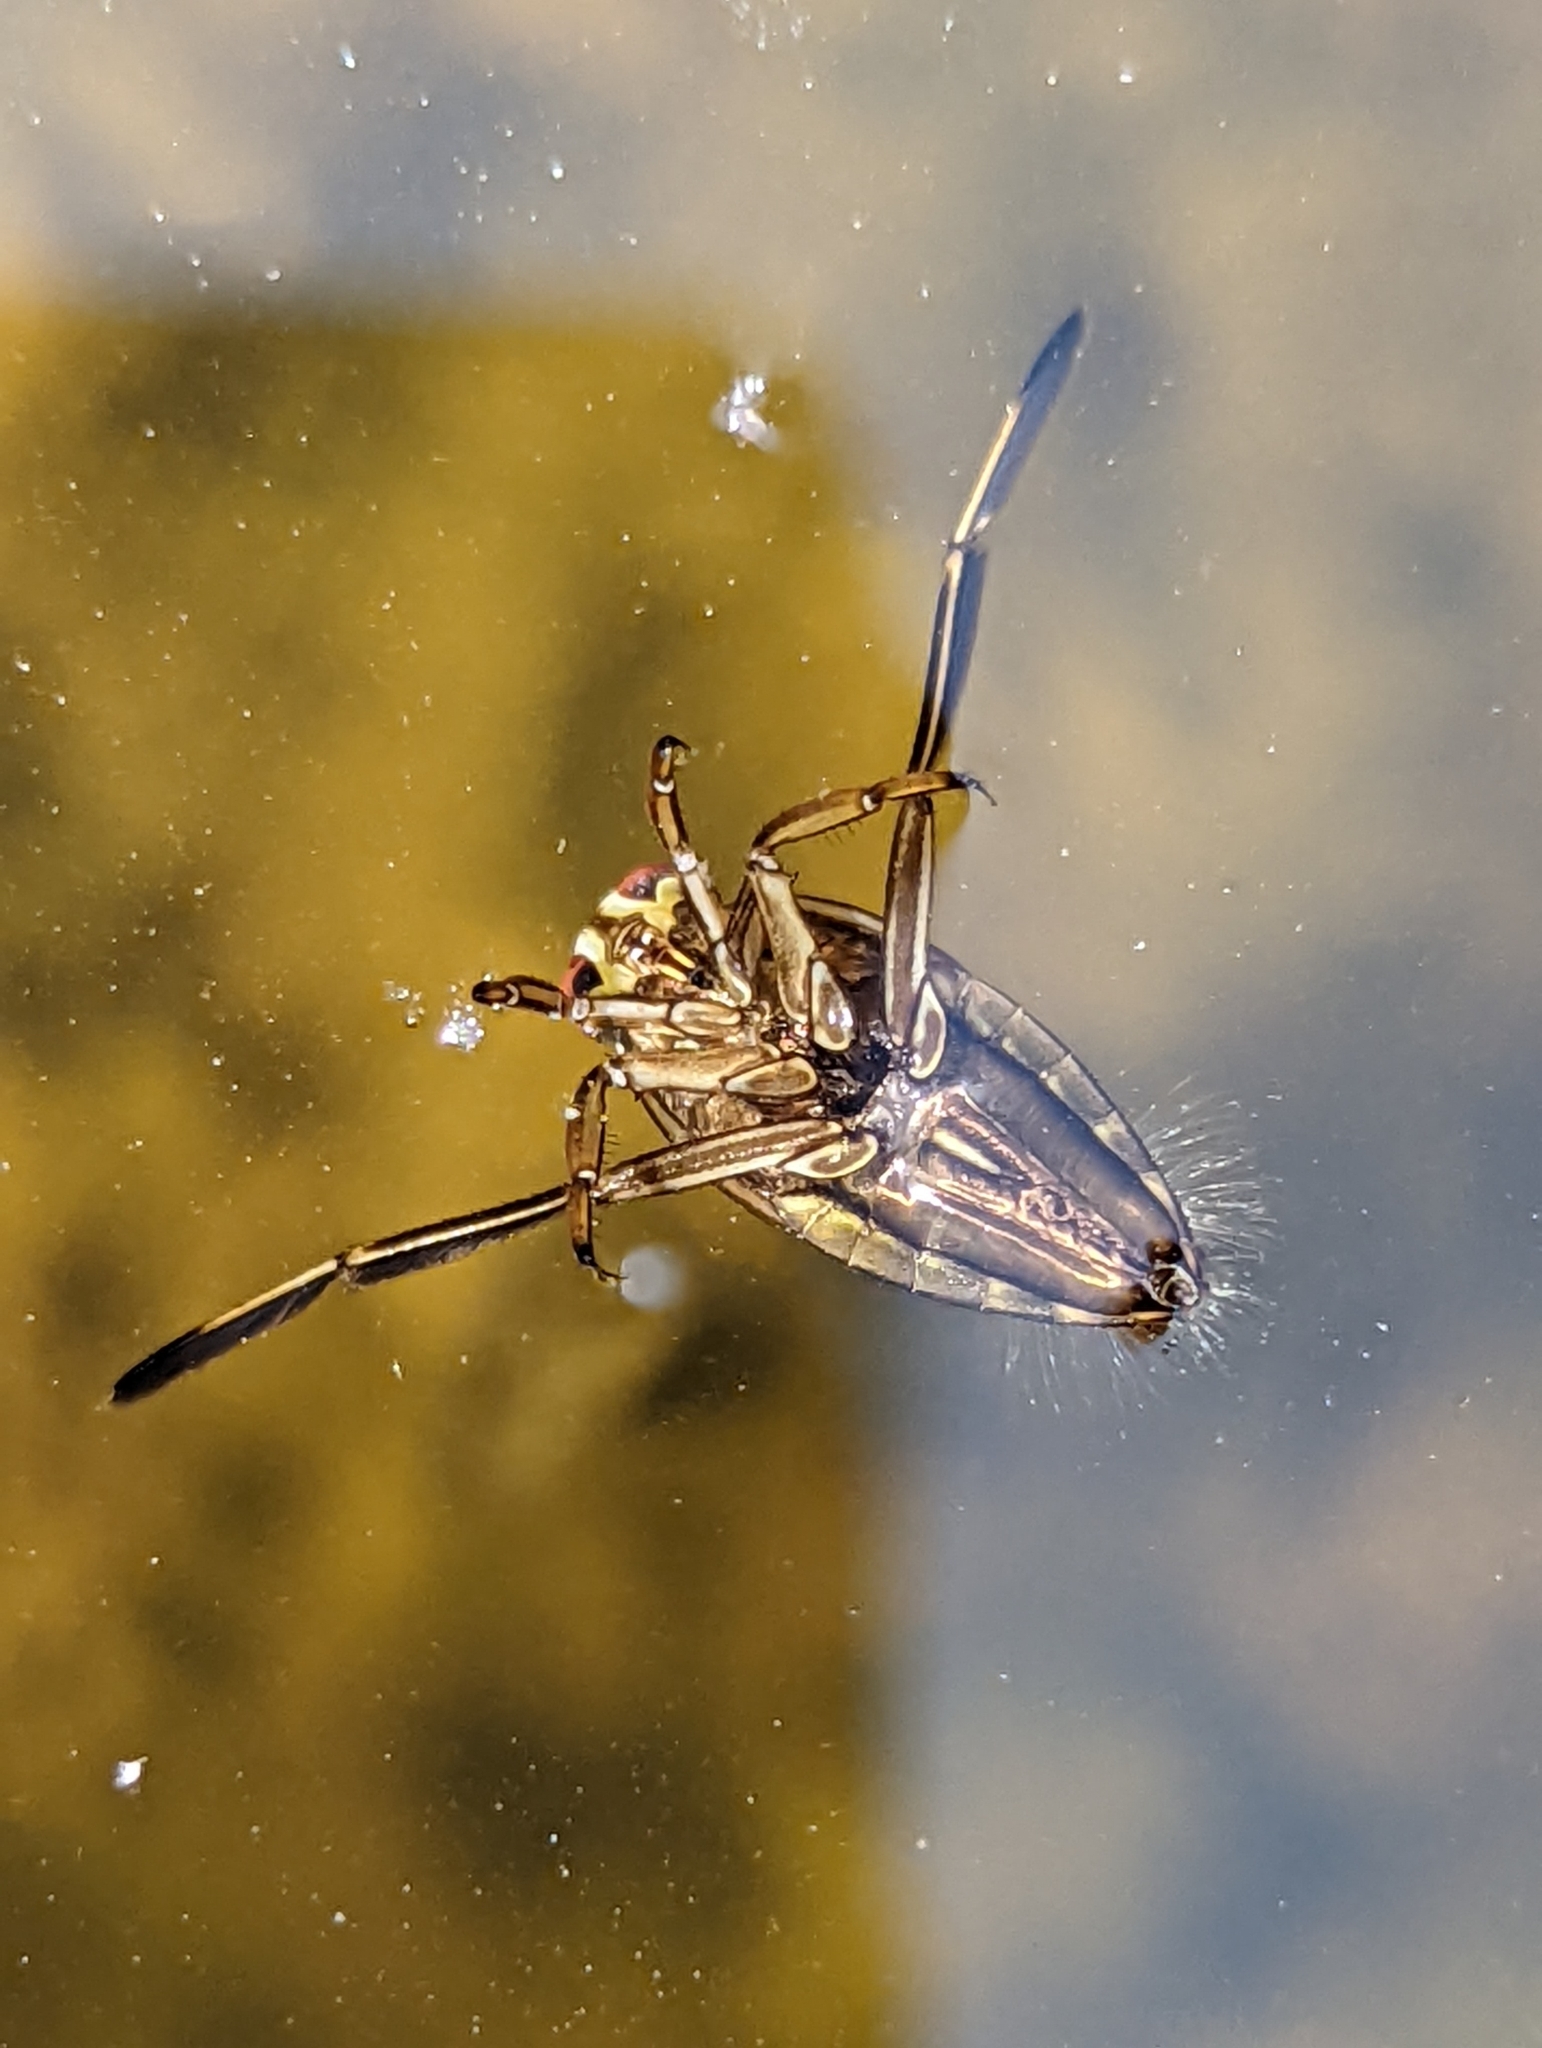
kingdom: Animalia
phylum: Arthropoda
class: Insecta
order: Hemiptera
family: Notonectidae
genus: Notonecta
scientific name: Notonecta
